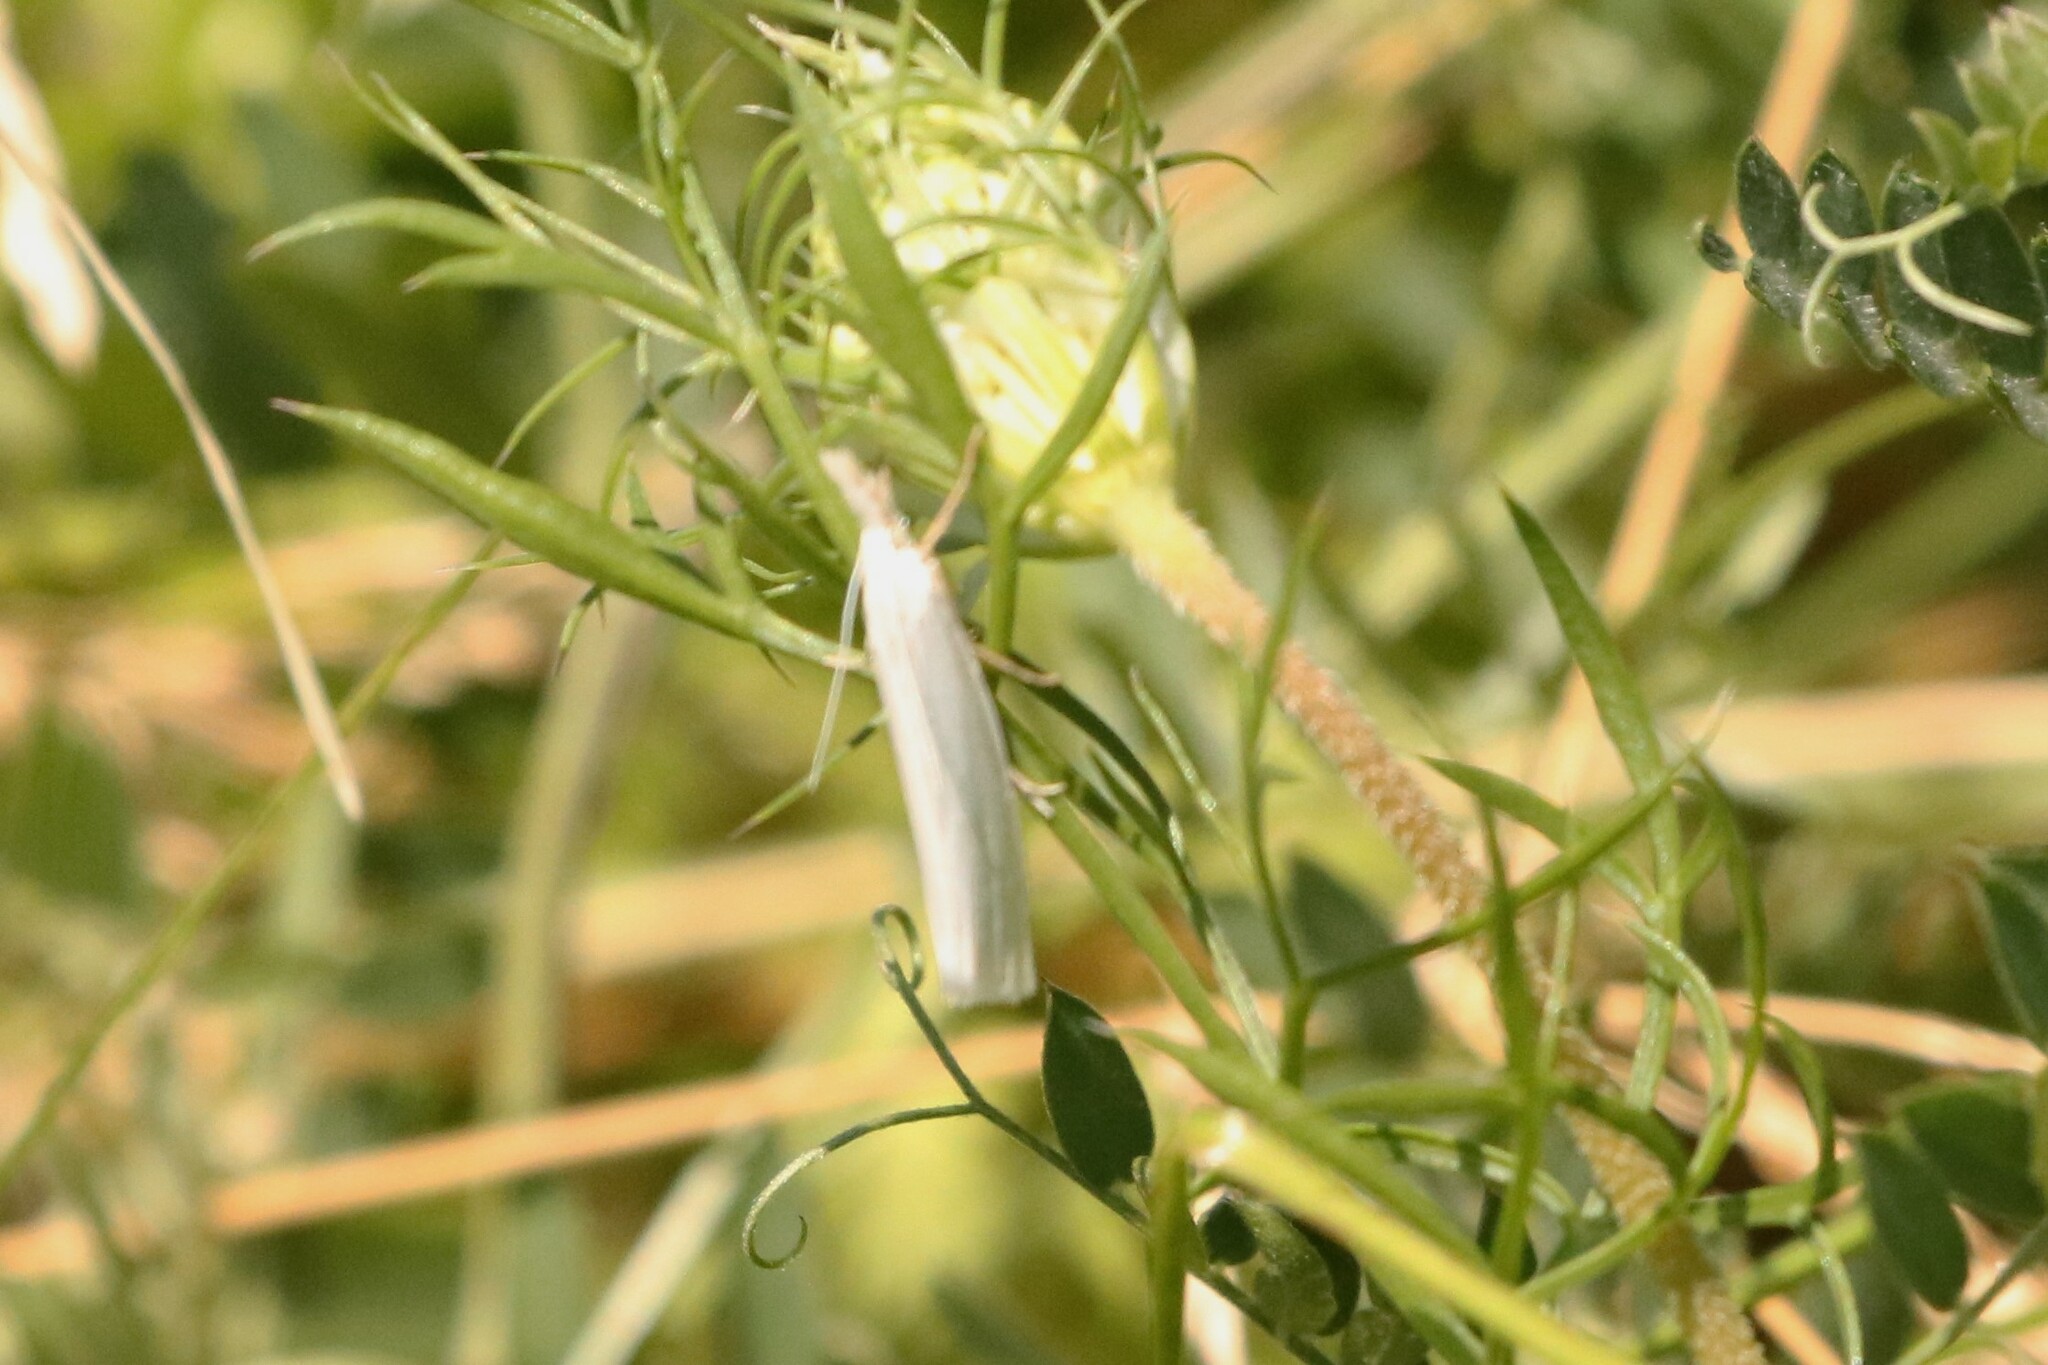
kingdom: Animalia
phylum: Arthropoda
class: Insecta
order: Lepidoptera
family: Crambidae
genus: Crambus
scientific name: Crambus perlellus
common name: Yellow satin veneer
